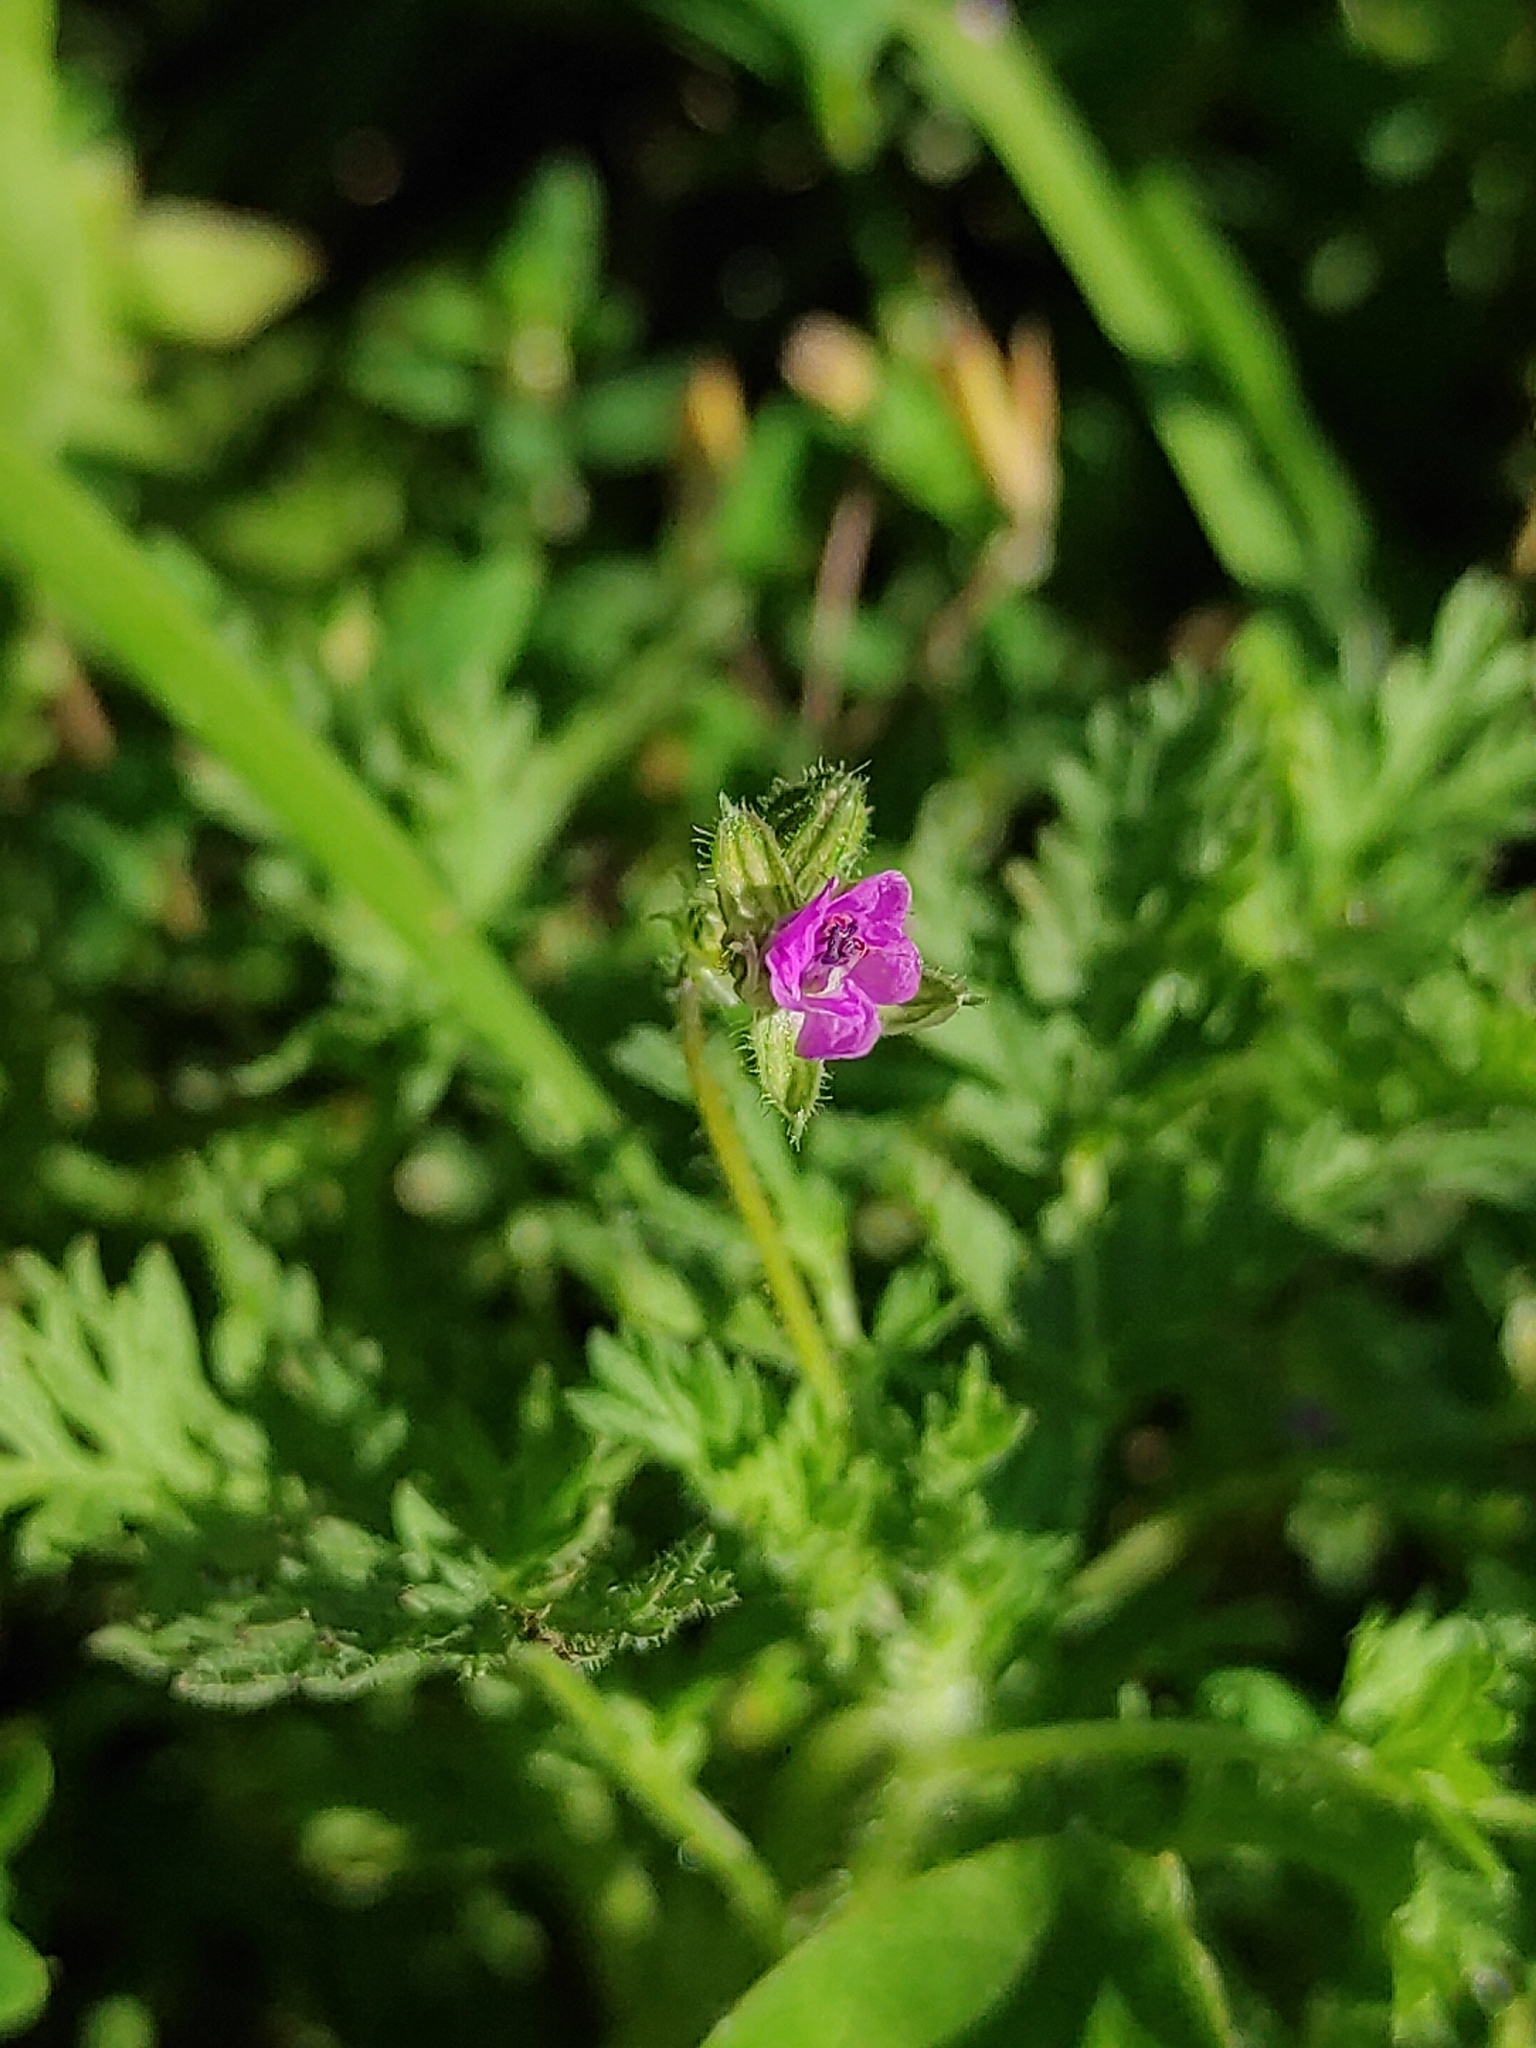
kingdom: Plantae
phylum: Tracheophyta
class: Magnoliopsida
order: Geraniales
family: Geraniaceae
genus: Erodium
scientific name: Erodium cicutarium
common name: Common stork's-bill
